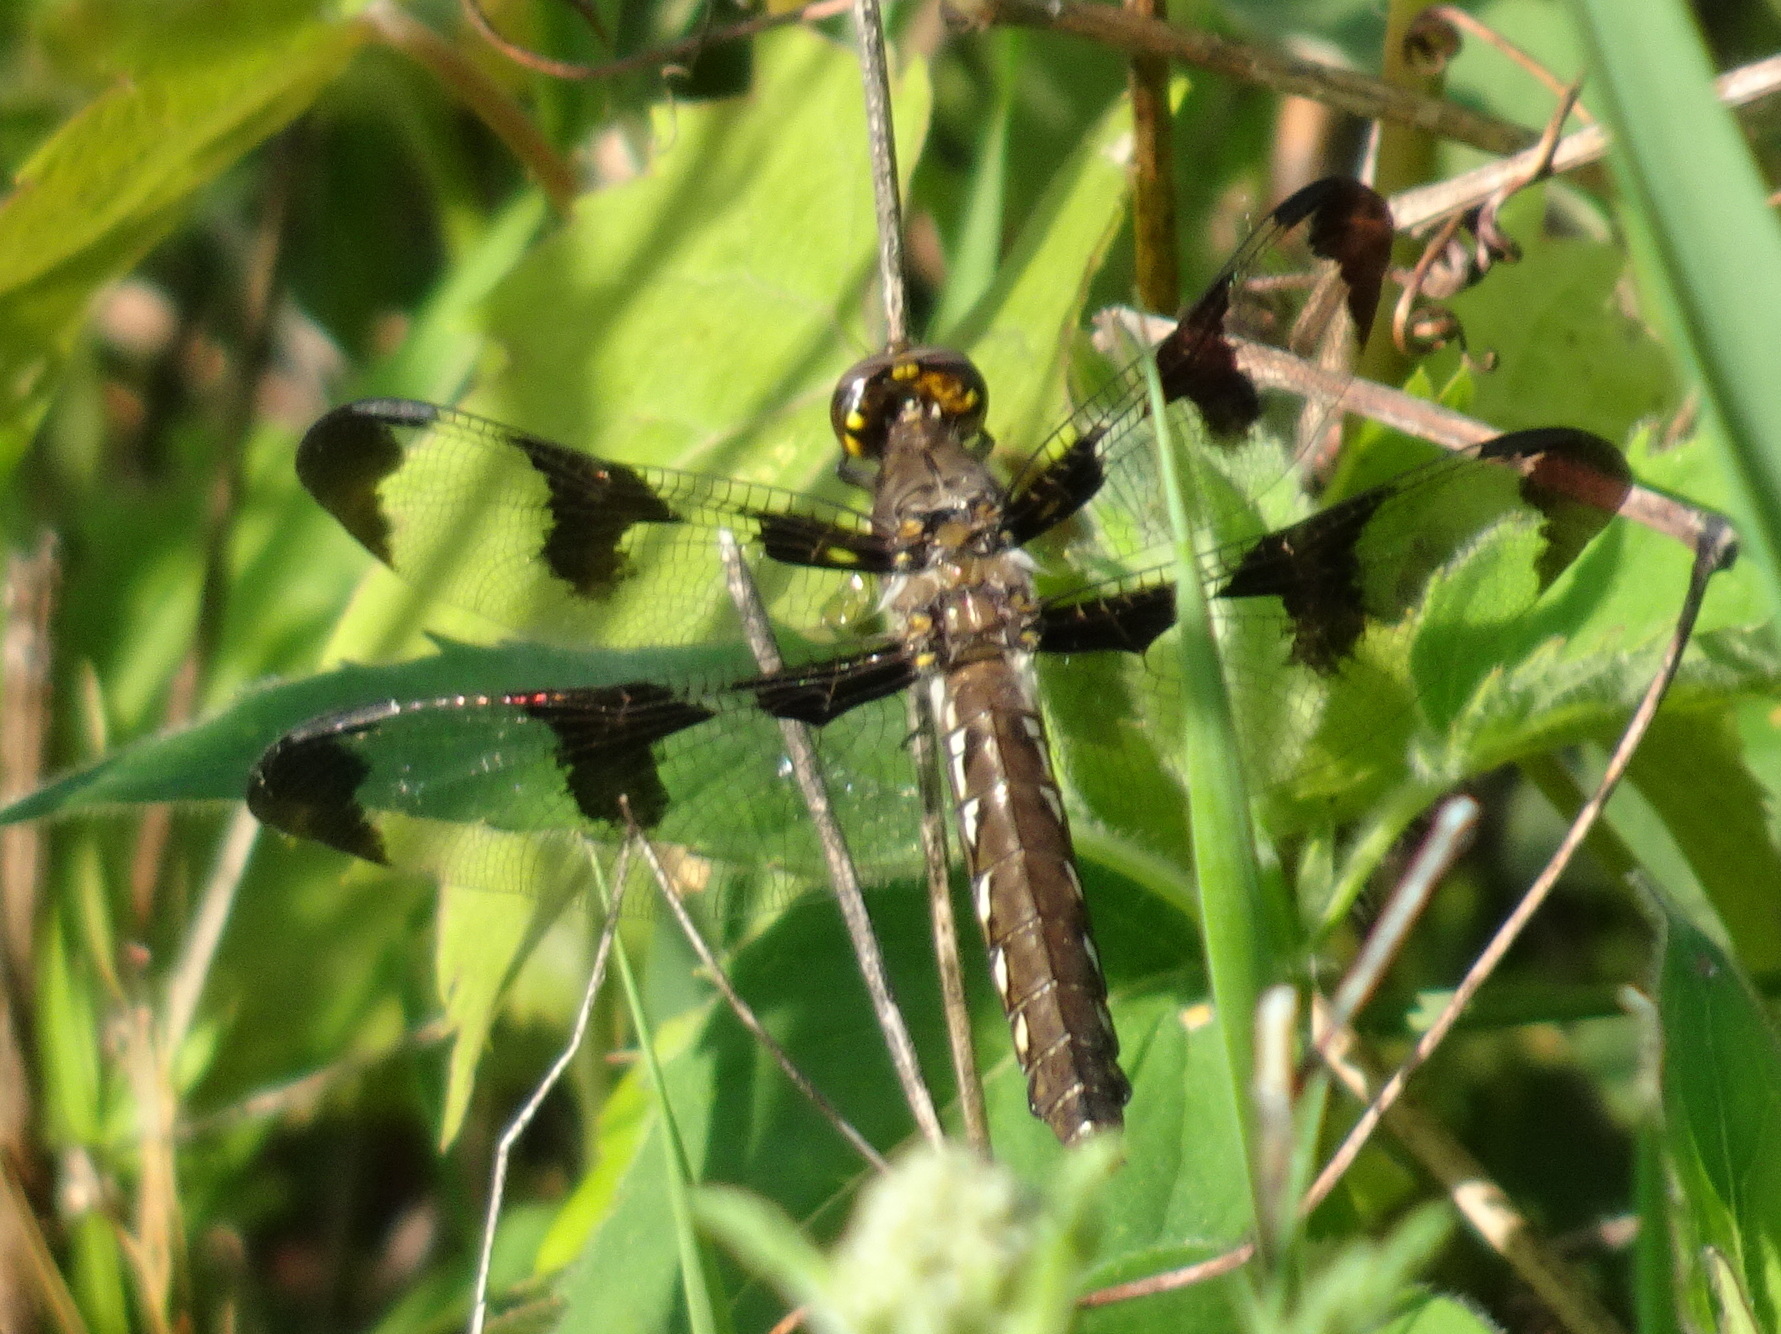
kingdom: Animalia
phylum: Arthropoda
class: Insecta
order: Odonata
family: Libellulidae
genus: Plathemis
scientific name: Plathemis lydia
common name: Common whitetail
